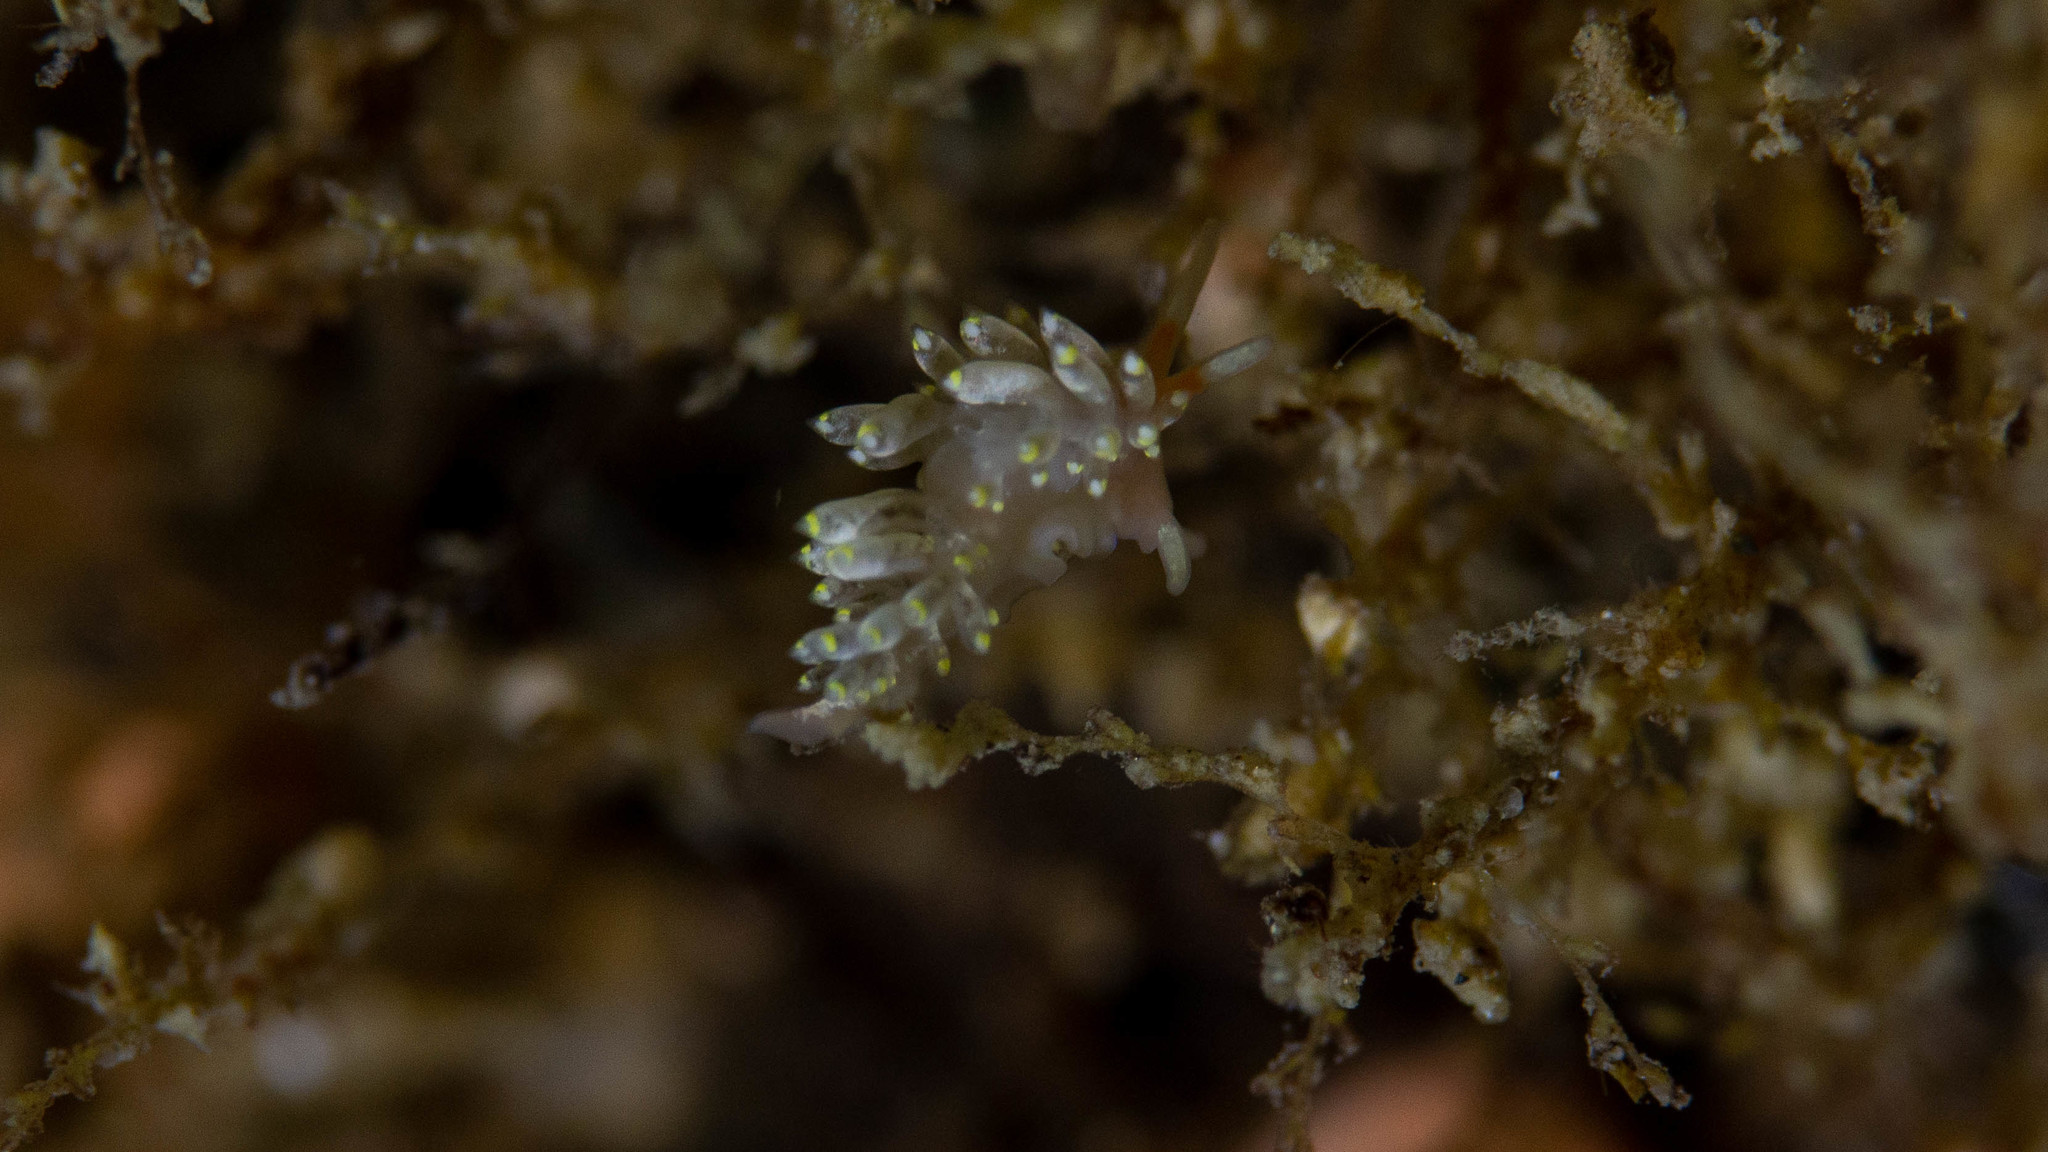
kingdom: Animalia
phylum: Mollusca
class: Gastropoda
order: Nudibranchia
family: Trinchesiidae
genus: Trinchesia
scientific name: Trinchesia catachroma
